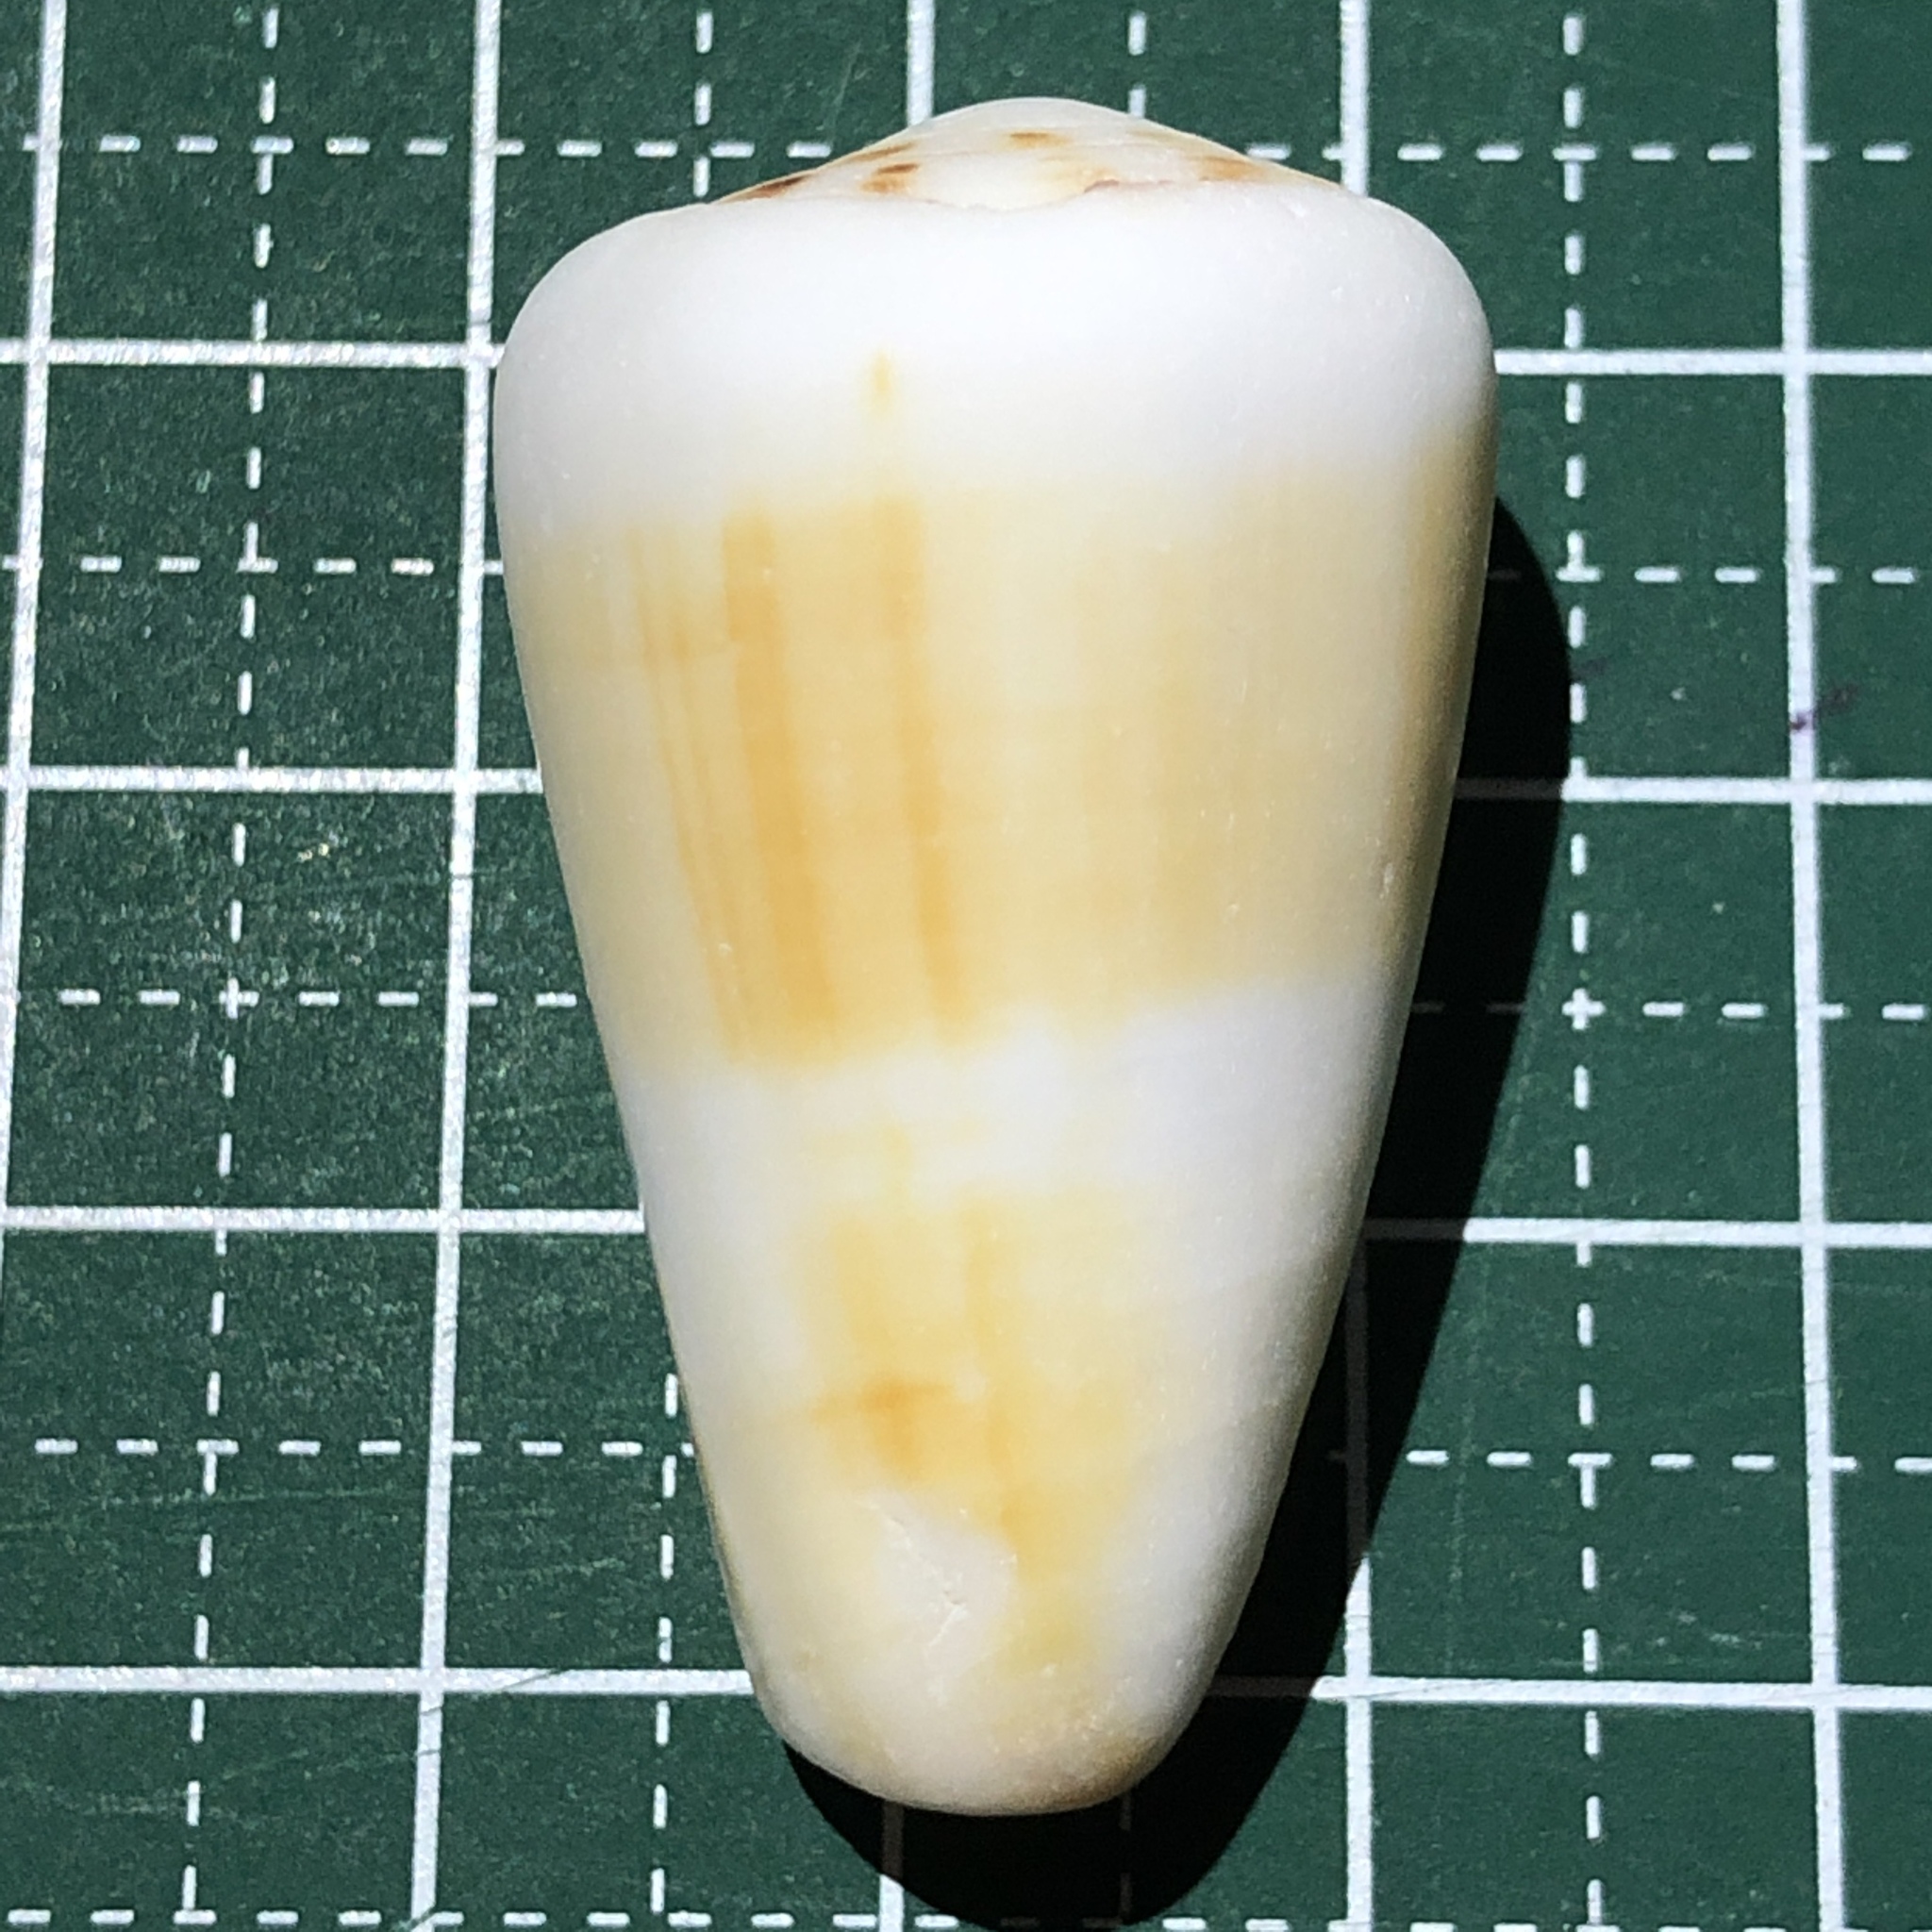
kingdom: Animalia
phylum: Mollusca
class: Gastropoda
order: Neogastropoda
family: Conidae
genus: Conus
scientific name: Conus planorbis
